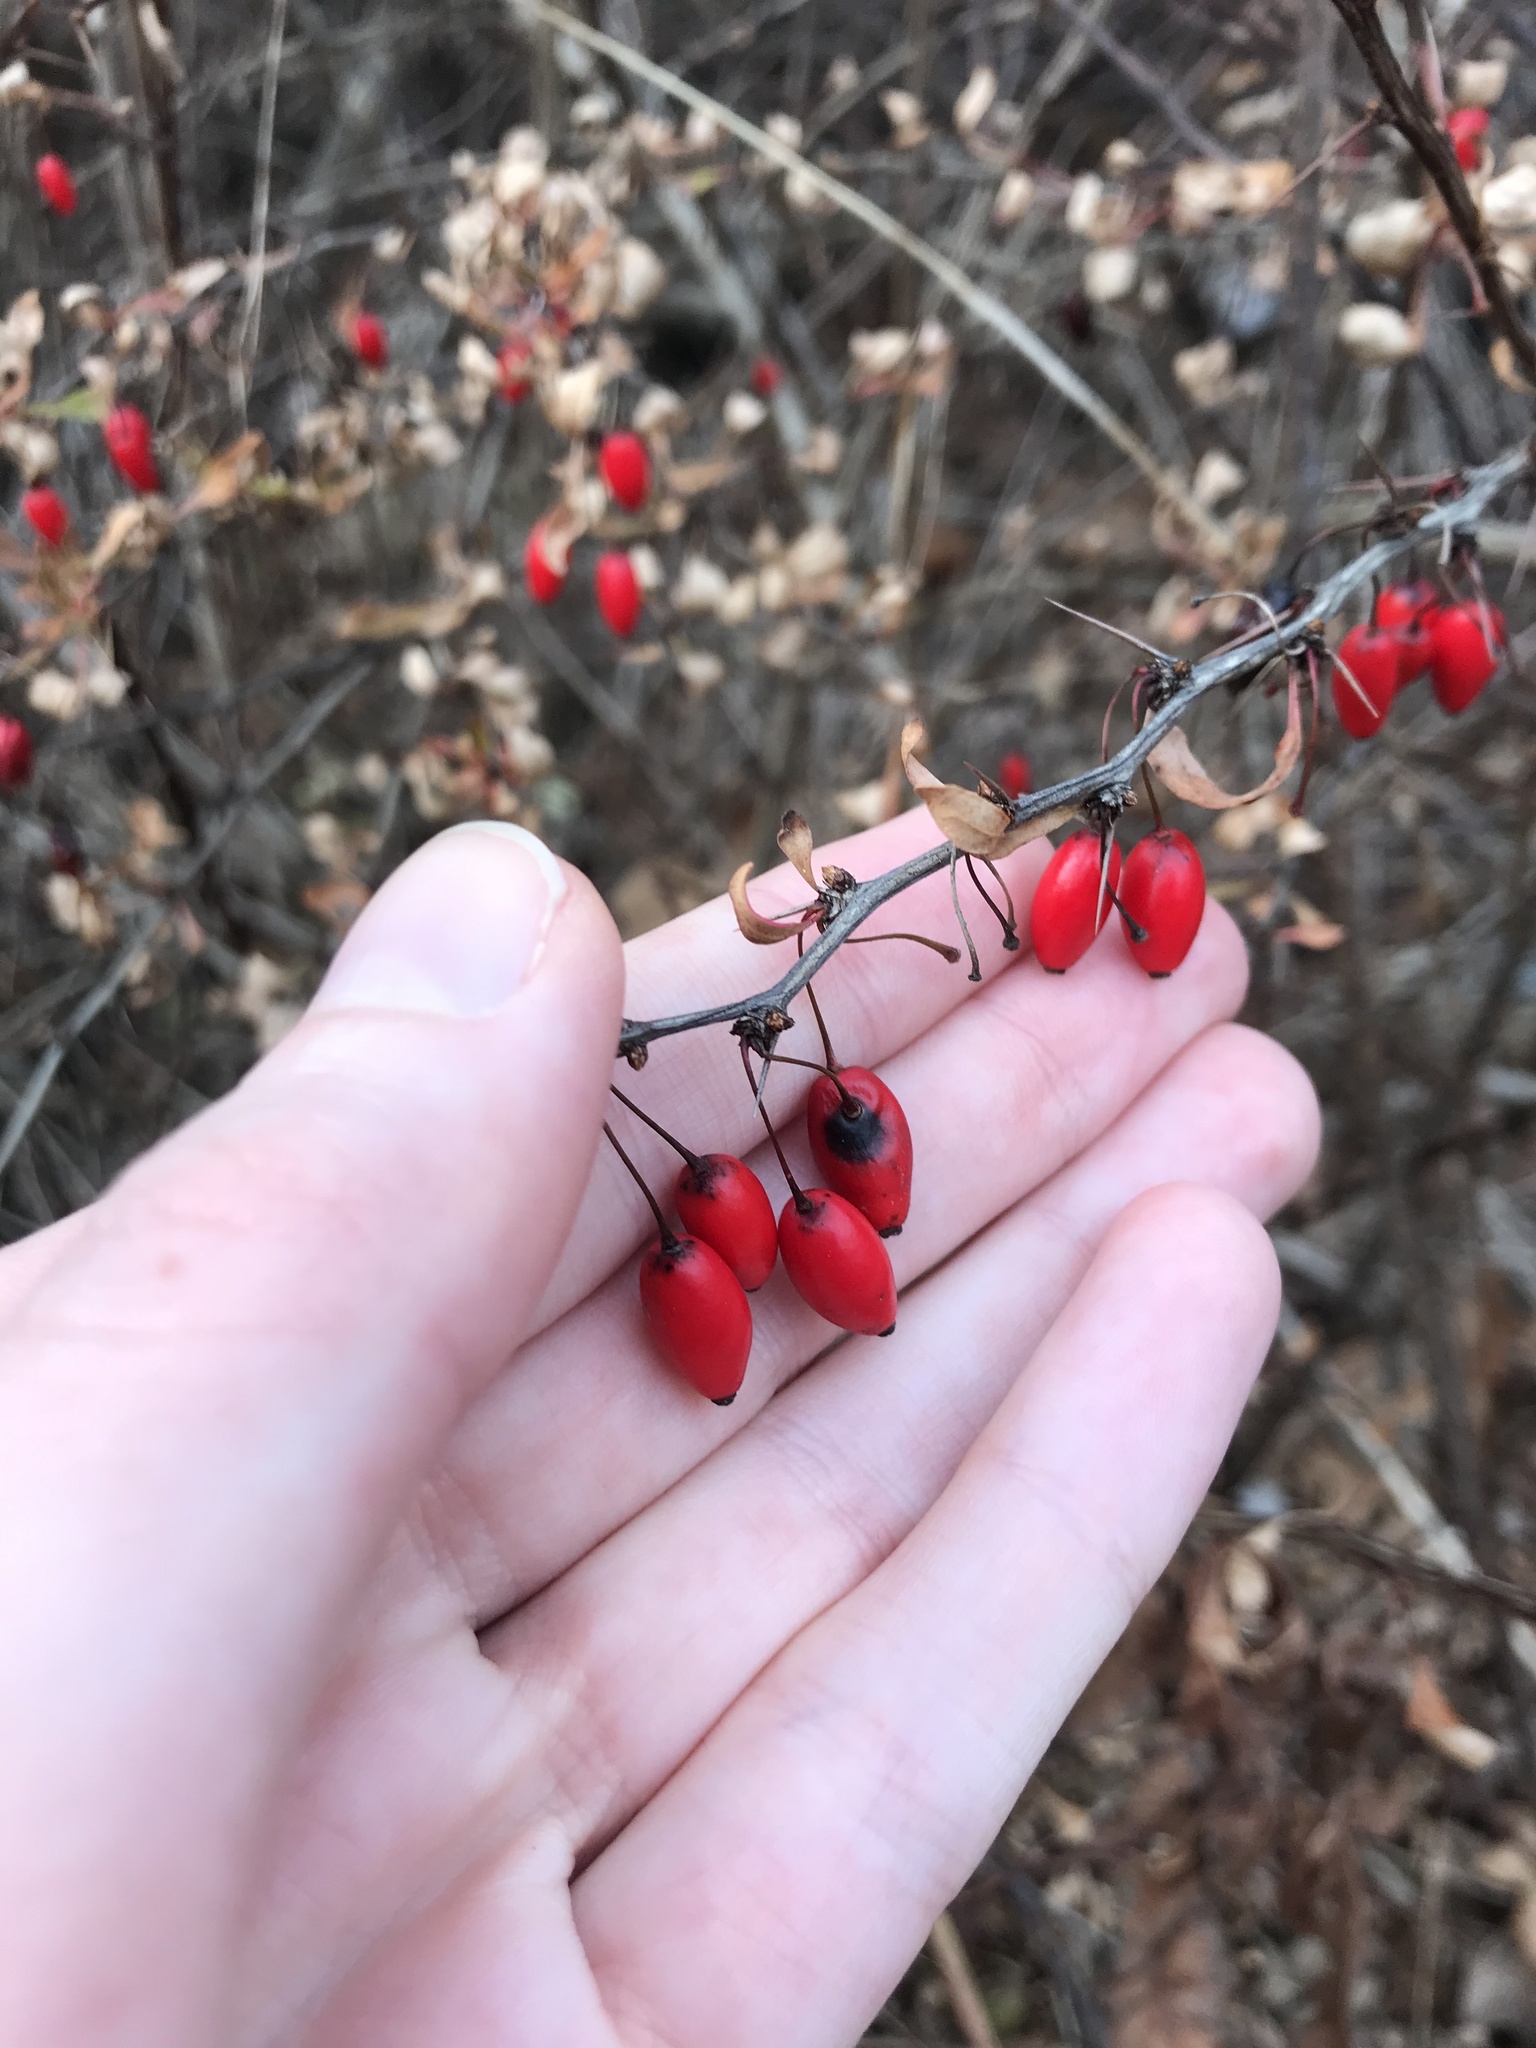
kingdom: Plantae
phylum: Tracheophyta
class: Magnoliopsida
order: Ranunculales
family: Berberidaceae
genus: Berberis
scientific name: Berberis thunbergii
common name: Japanese barberry
